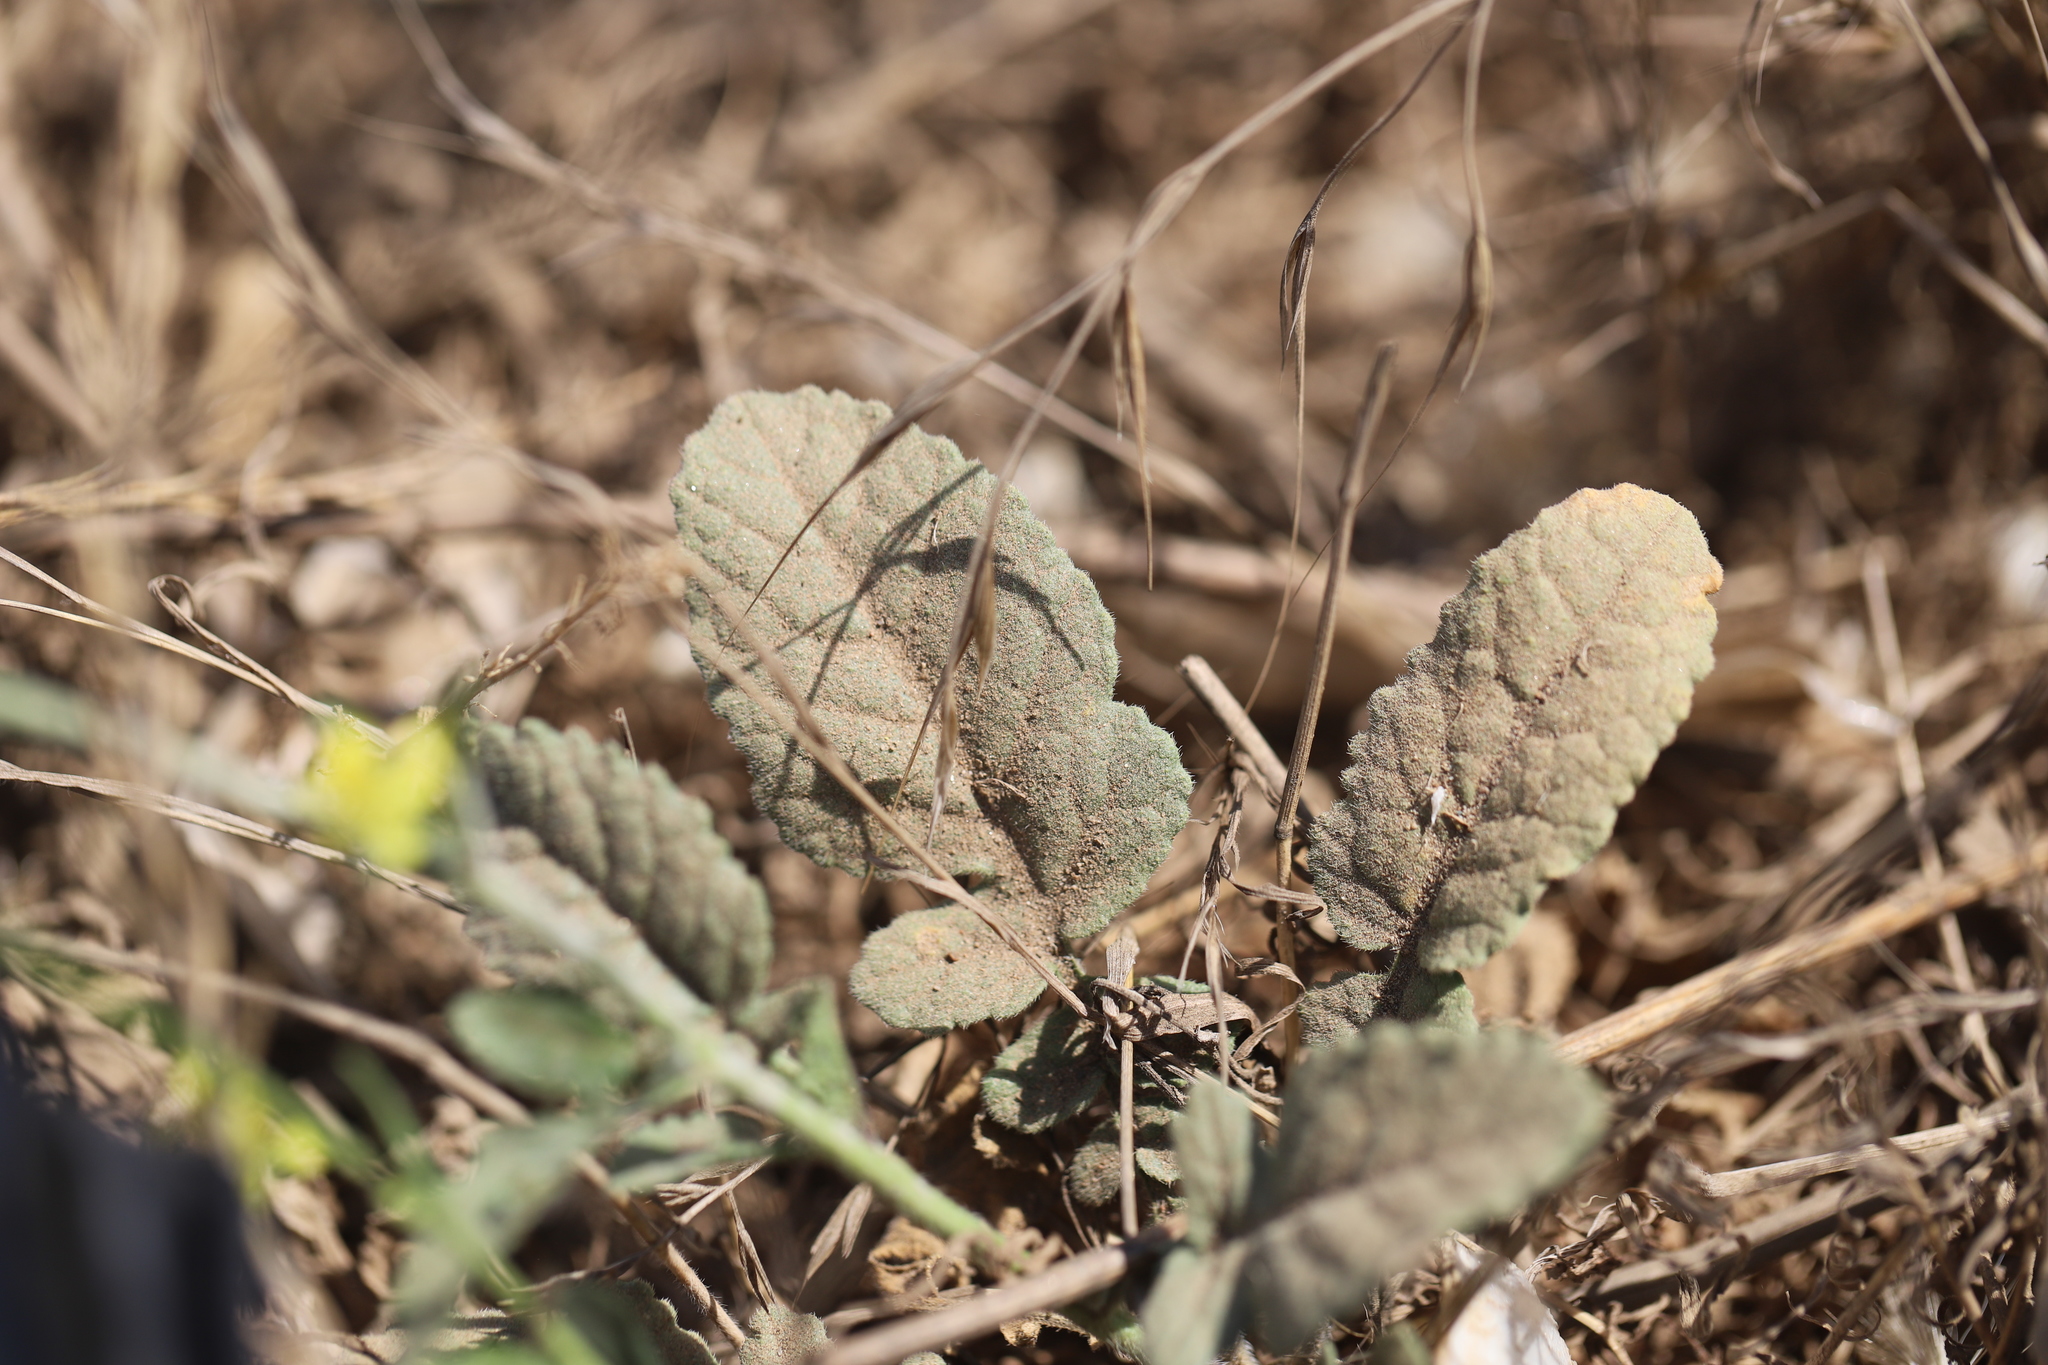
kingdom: Plantae
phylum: Tracheophyta
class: Magnoliopsida
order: Brassicales
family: Brassicaceae
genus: Hirschfeldia
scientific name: Hirschfeldia incana
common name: Hoary mustard
